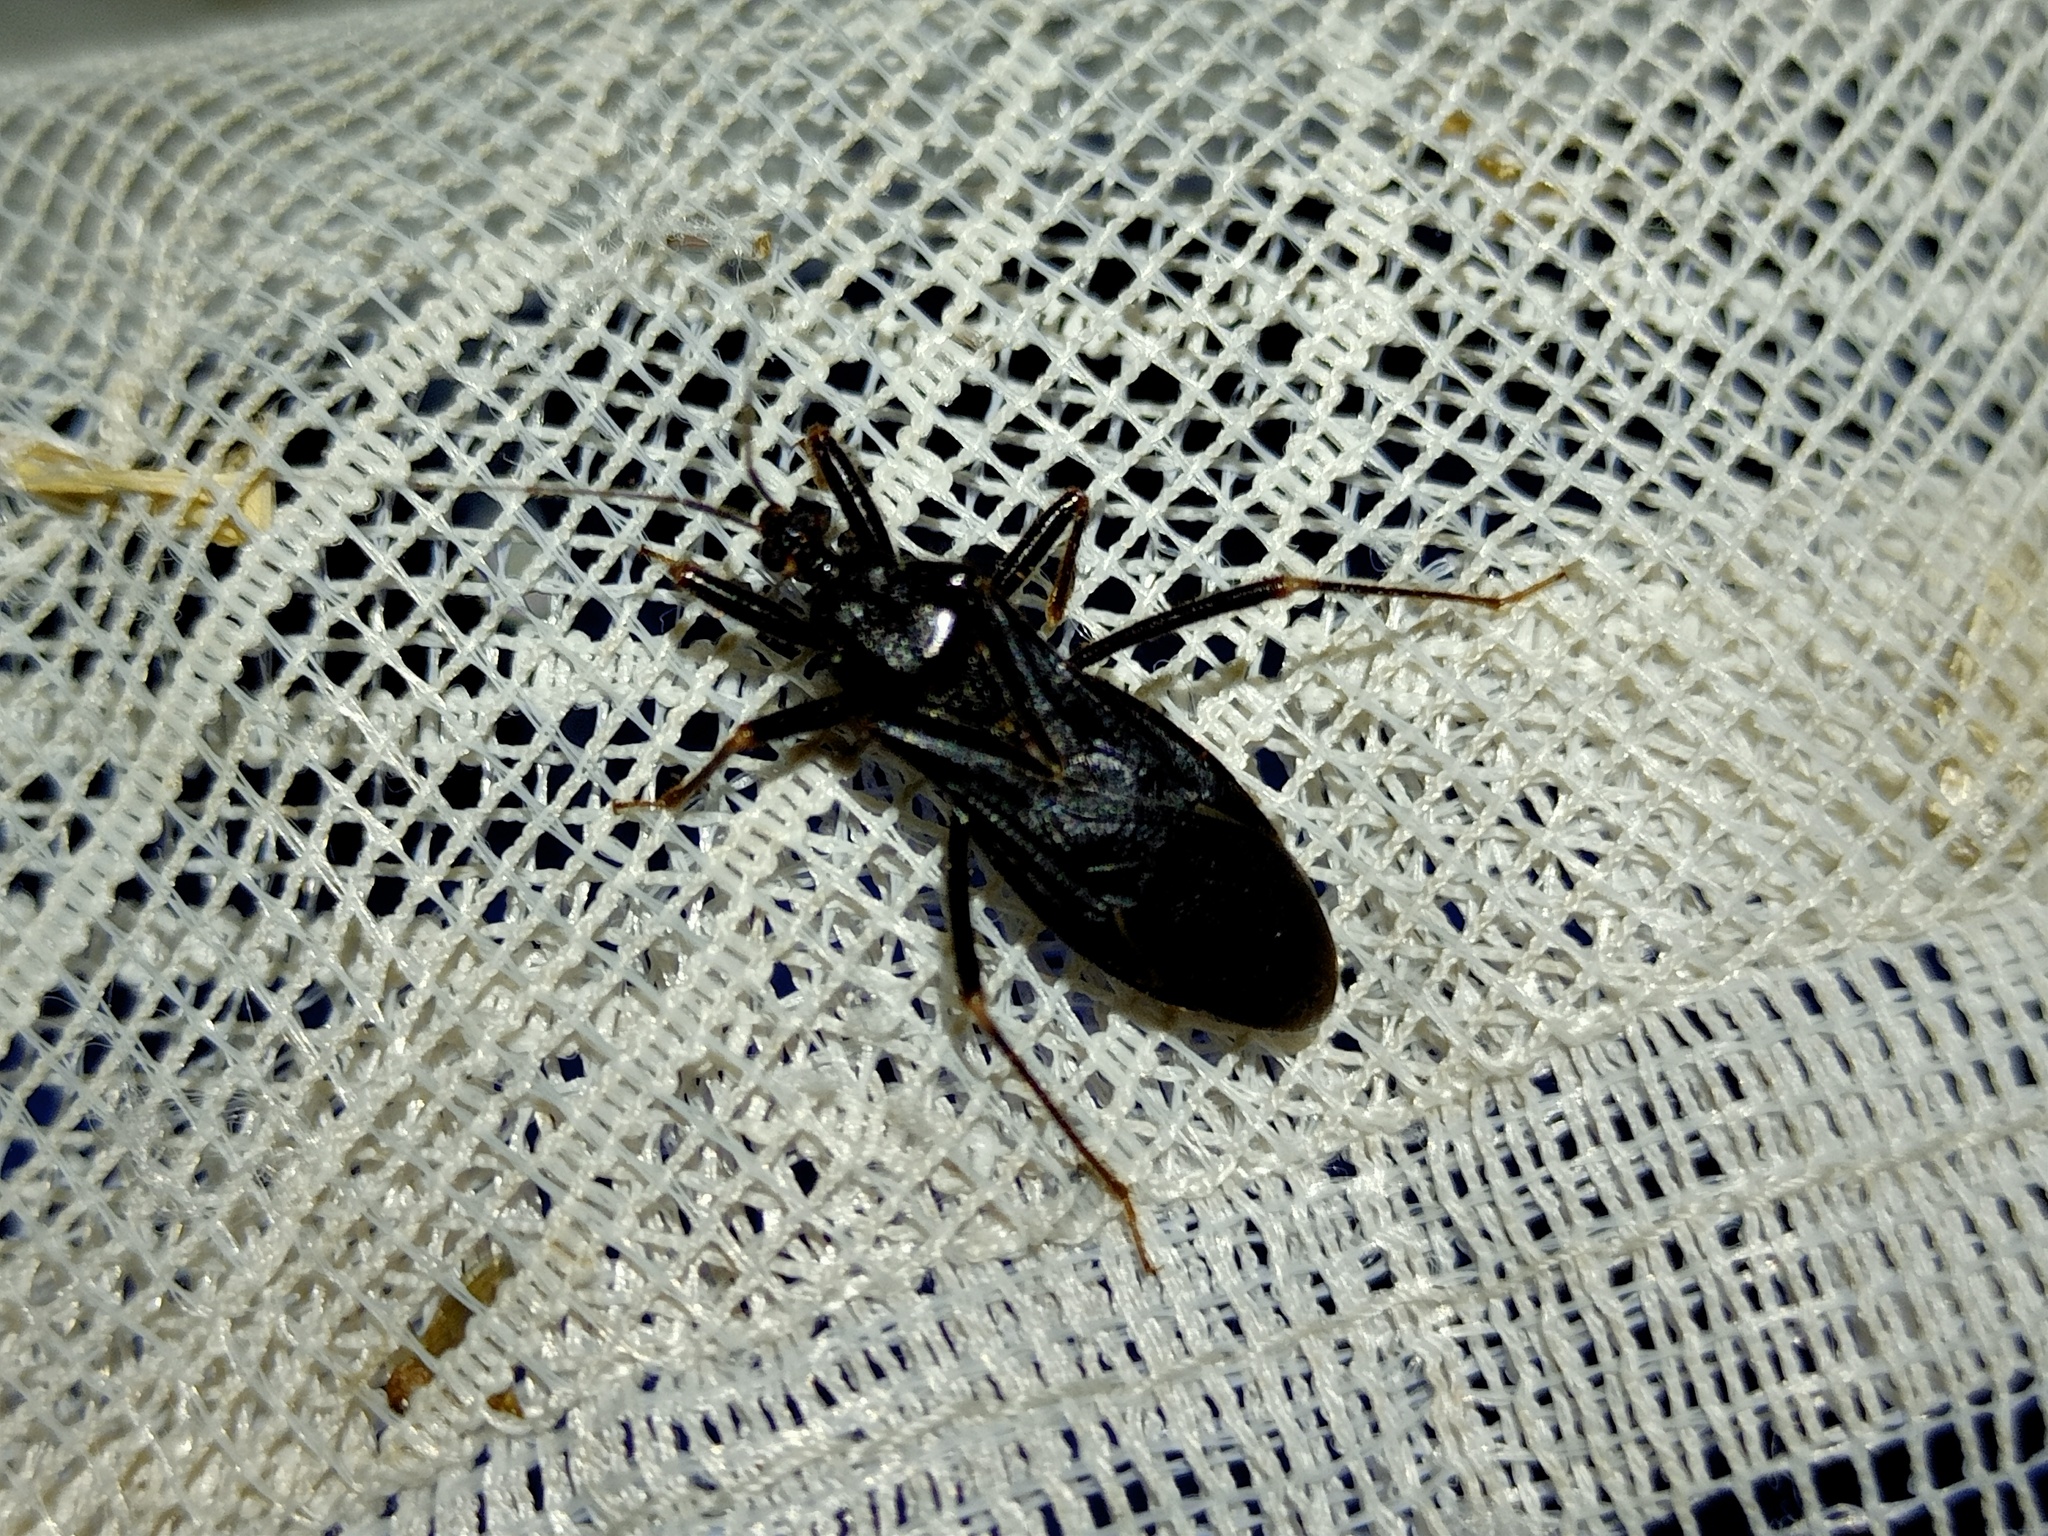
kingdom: Animalia
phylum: Arthropoda
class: Insecta
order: Hemiptera
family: Reduviidae
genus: Reduvius
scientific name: Reduvius personatus
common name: Masked hunter
